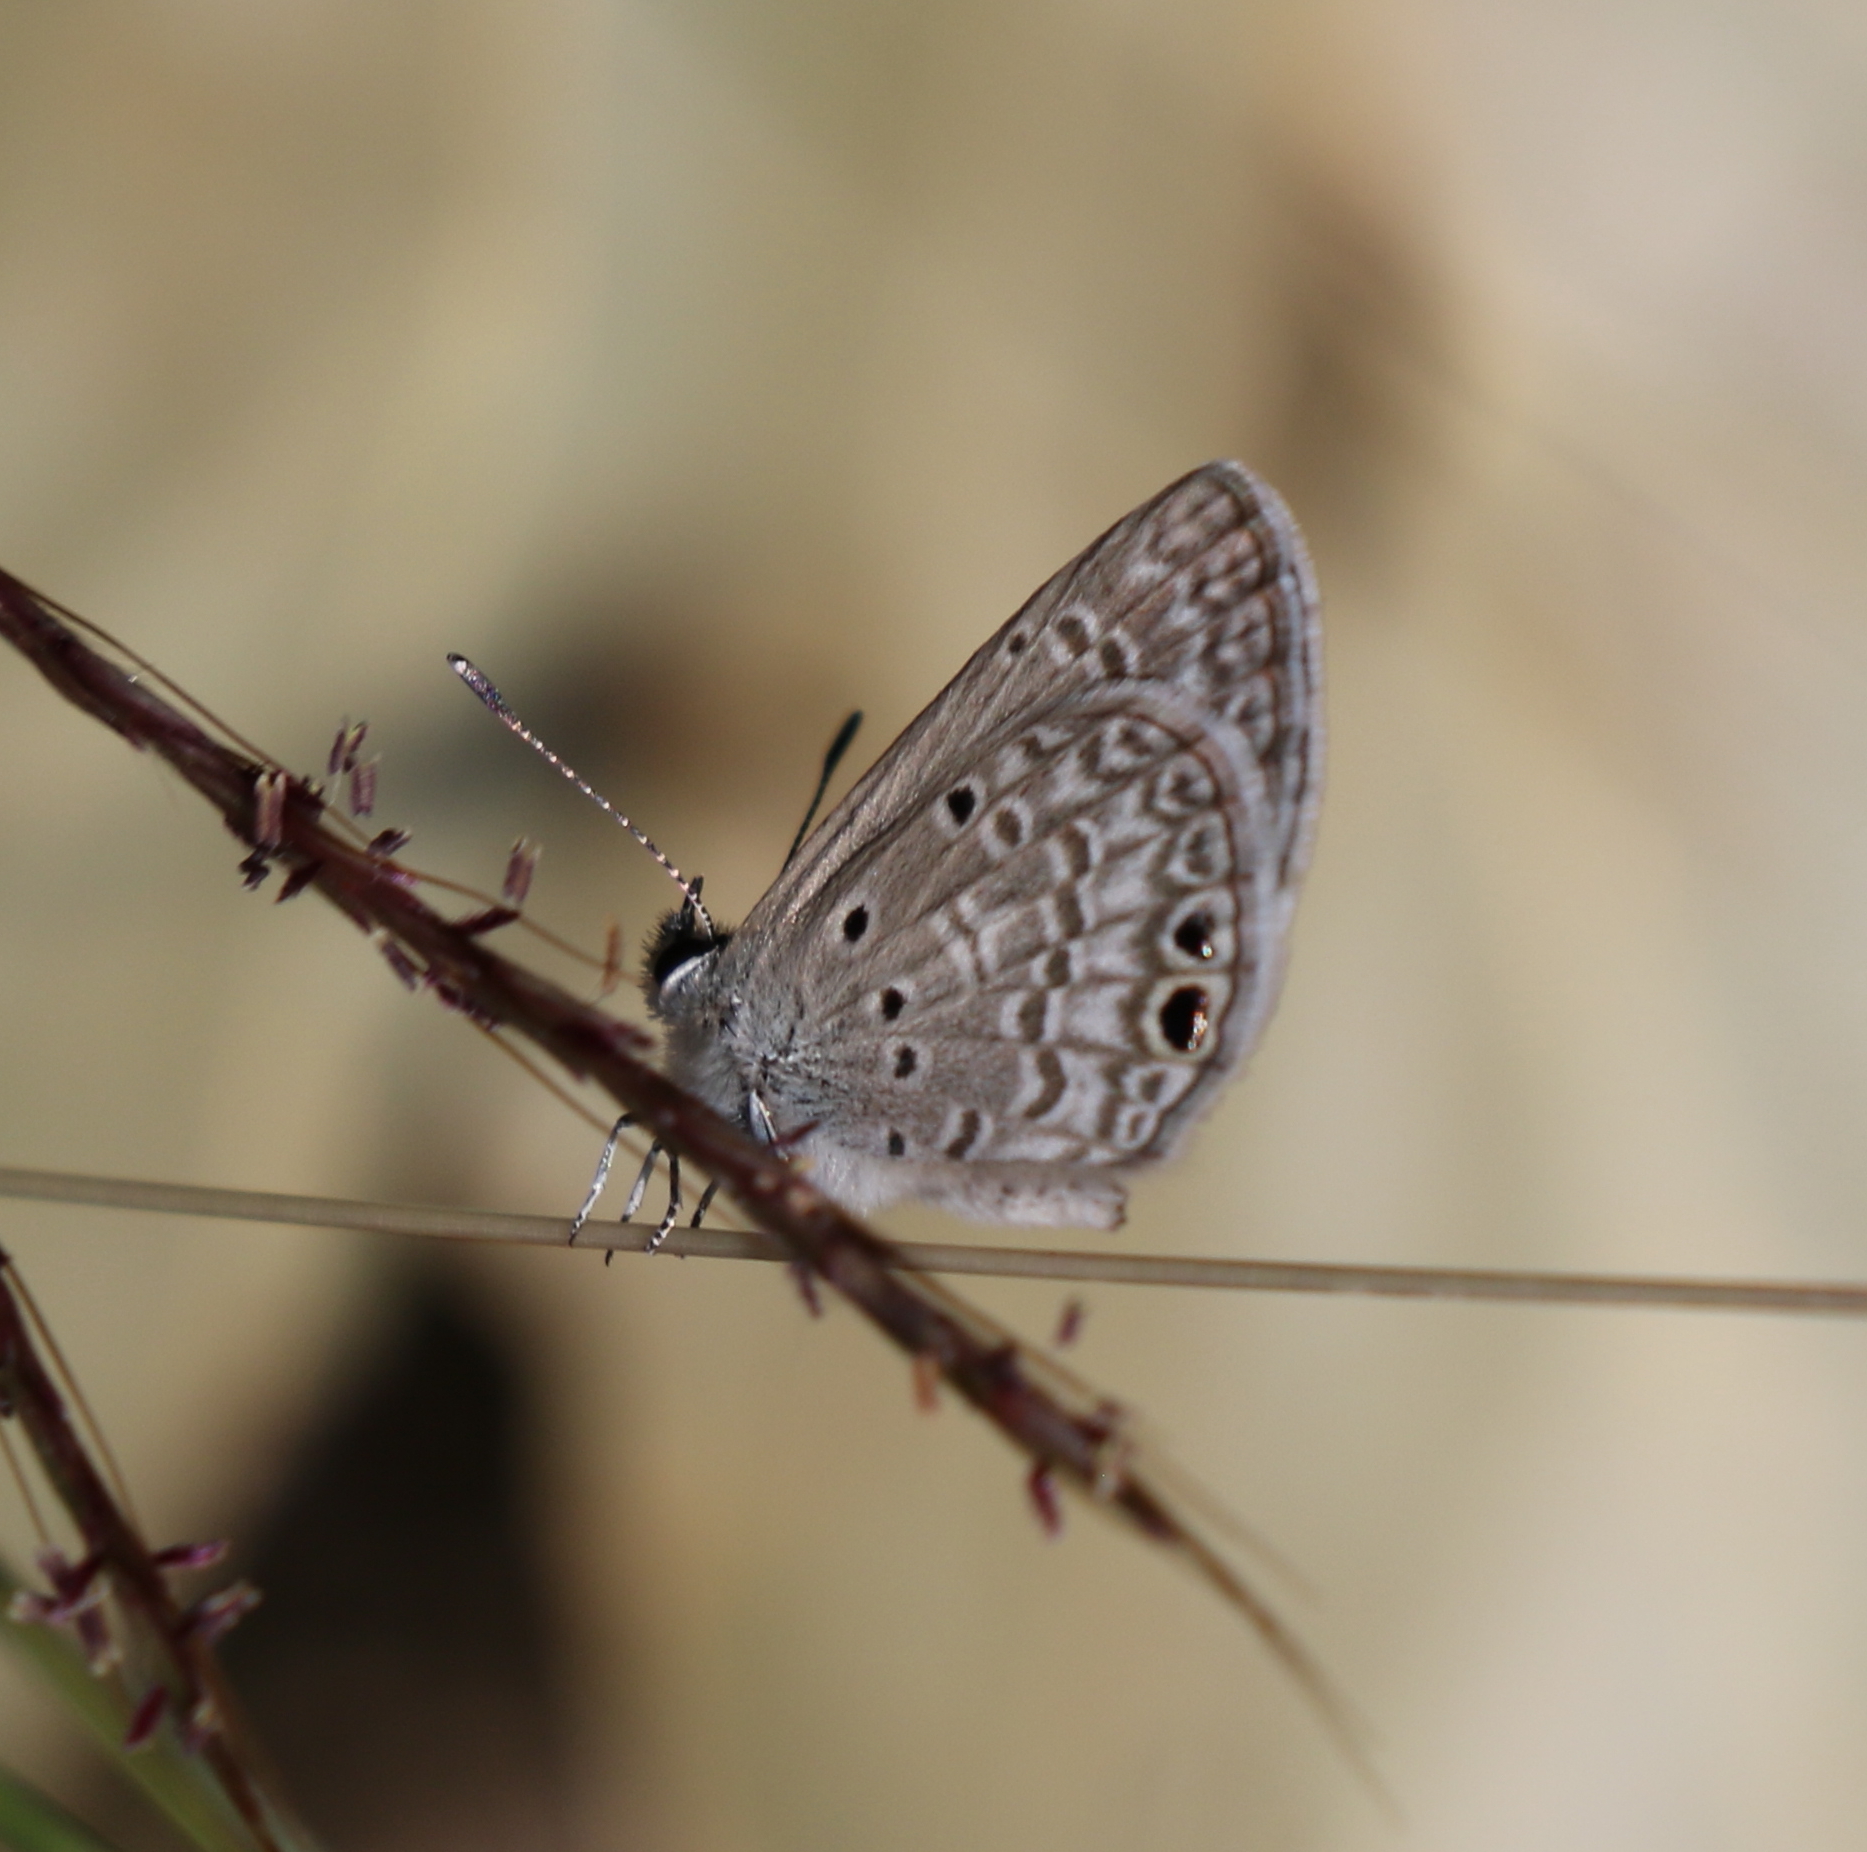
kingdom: Animalia
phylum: Arthropoda
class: Insecta
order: Lepidoptera
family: Lycaenidae
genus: Hemiargus
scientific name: Hemiargus ceraunus
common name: Ceraunus blue
